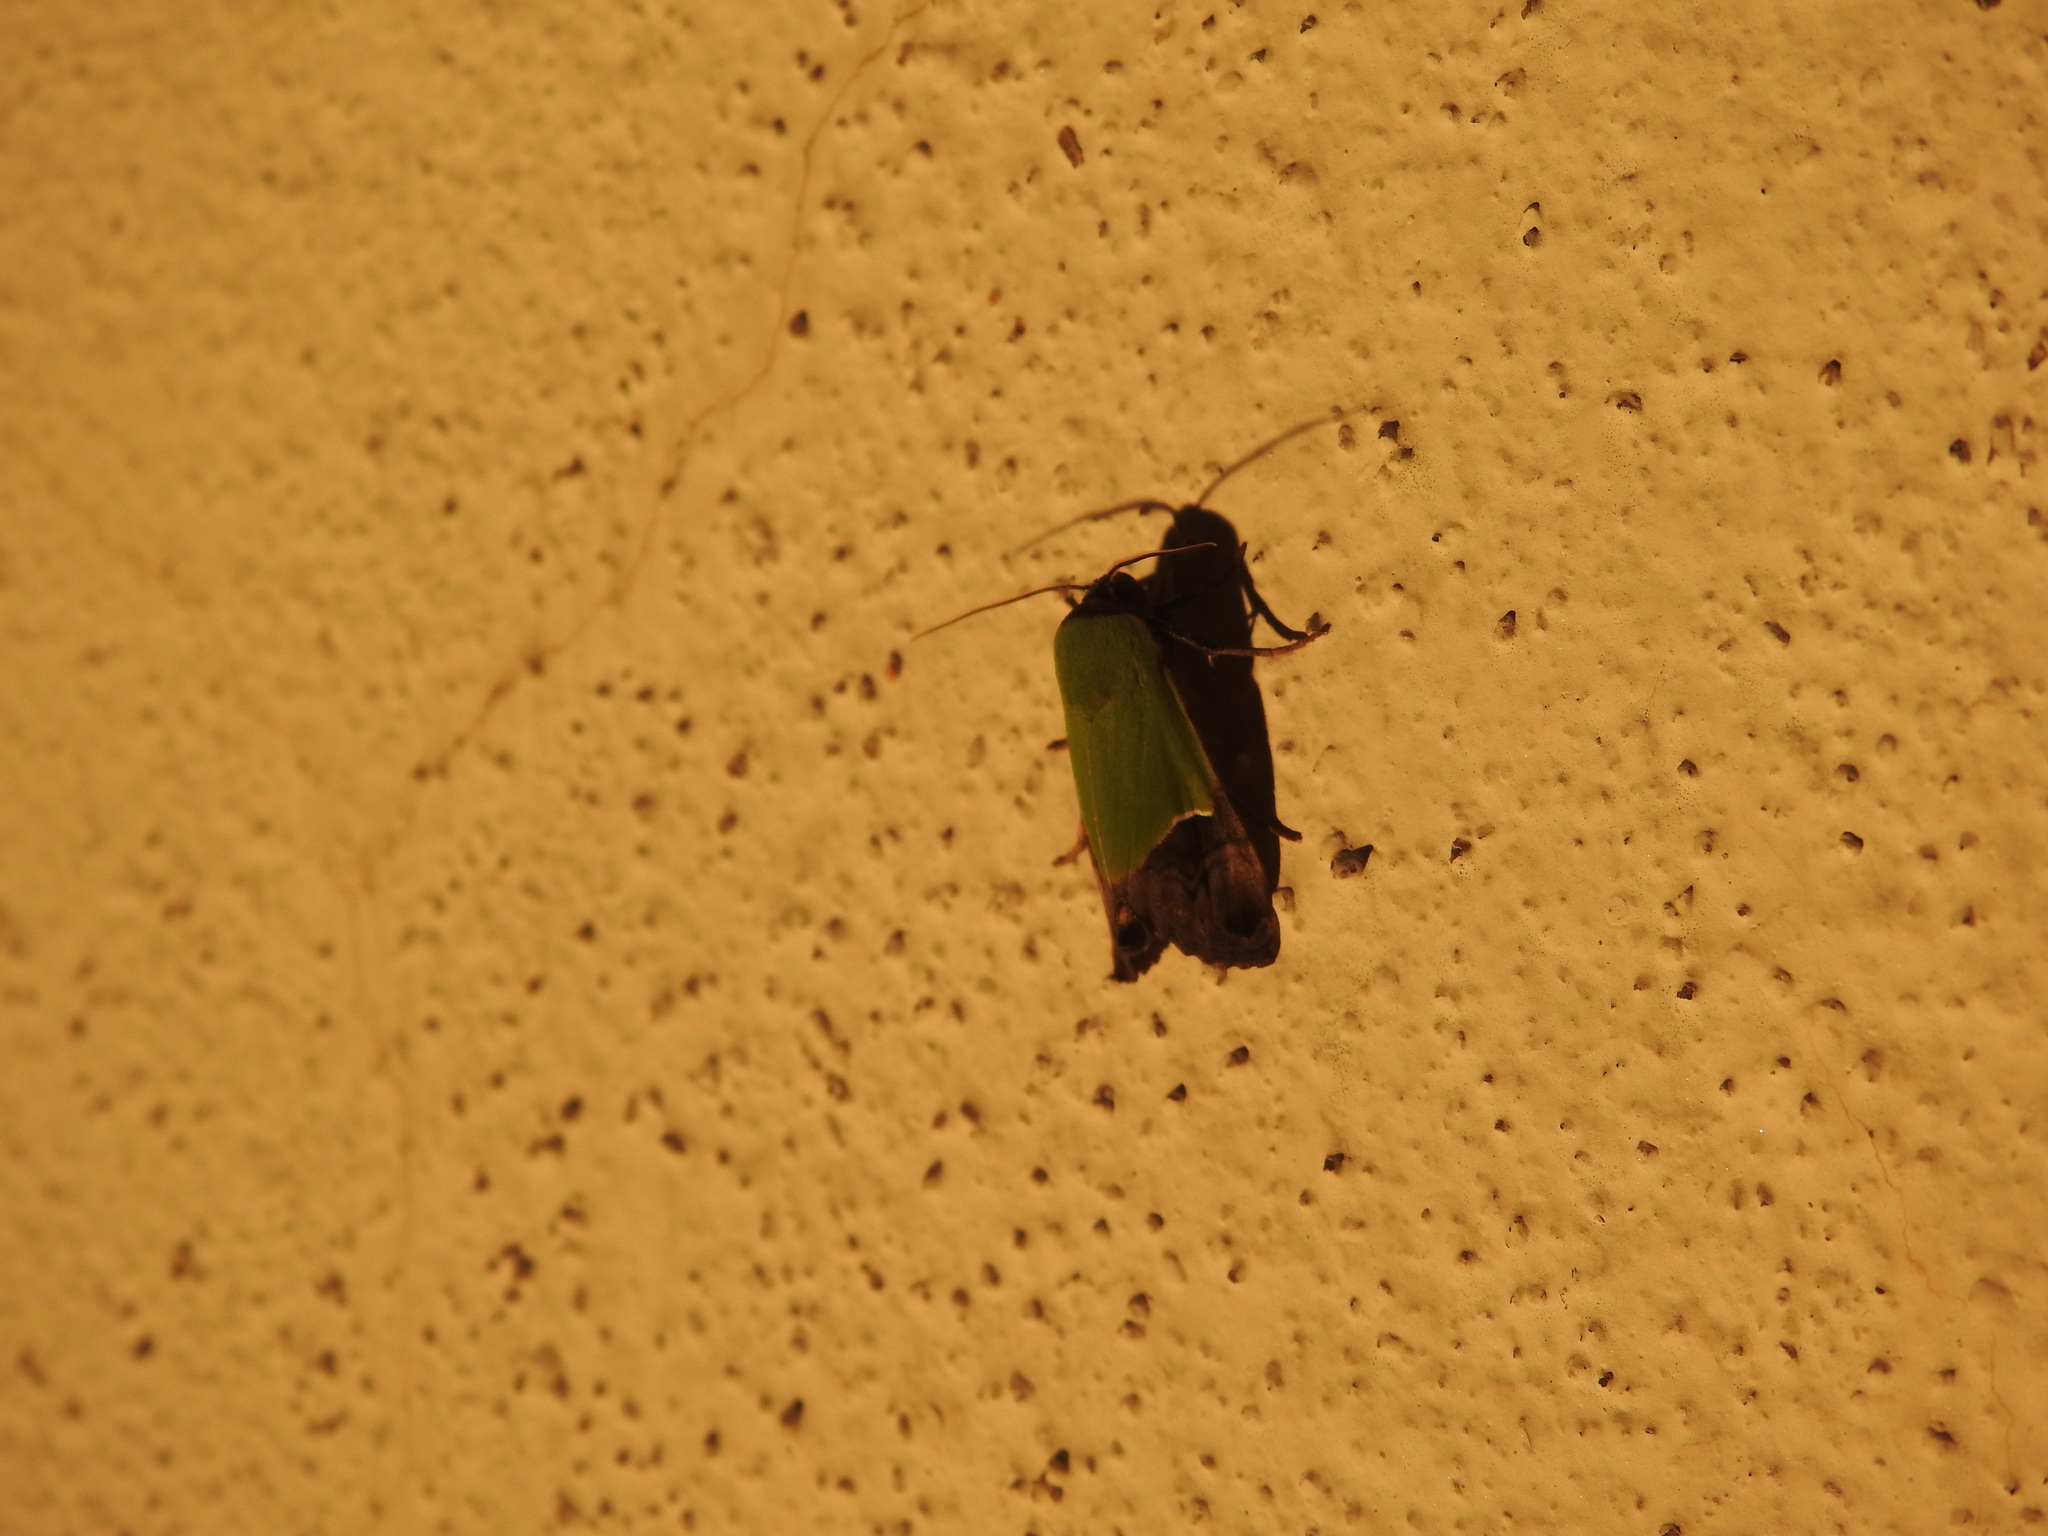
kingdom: Animalia
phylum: Arthropoda
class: Insecta
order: Lepidoptera
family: Erebidae
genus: Hemichloridia
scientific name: Hemichloridia euprepia
